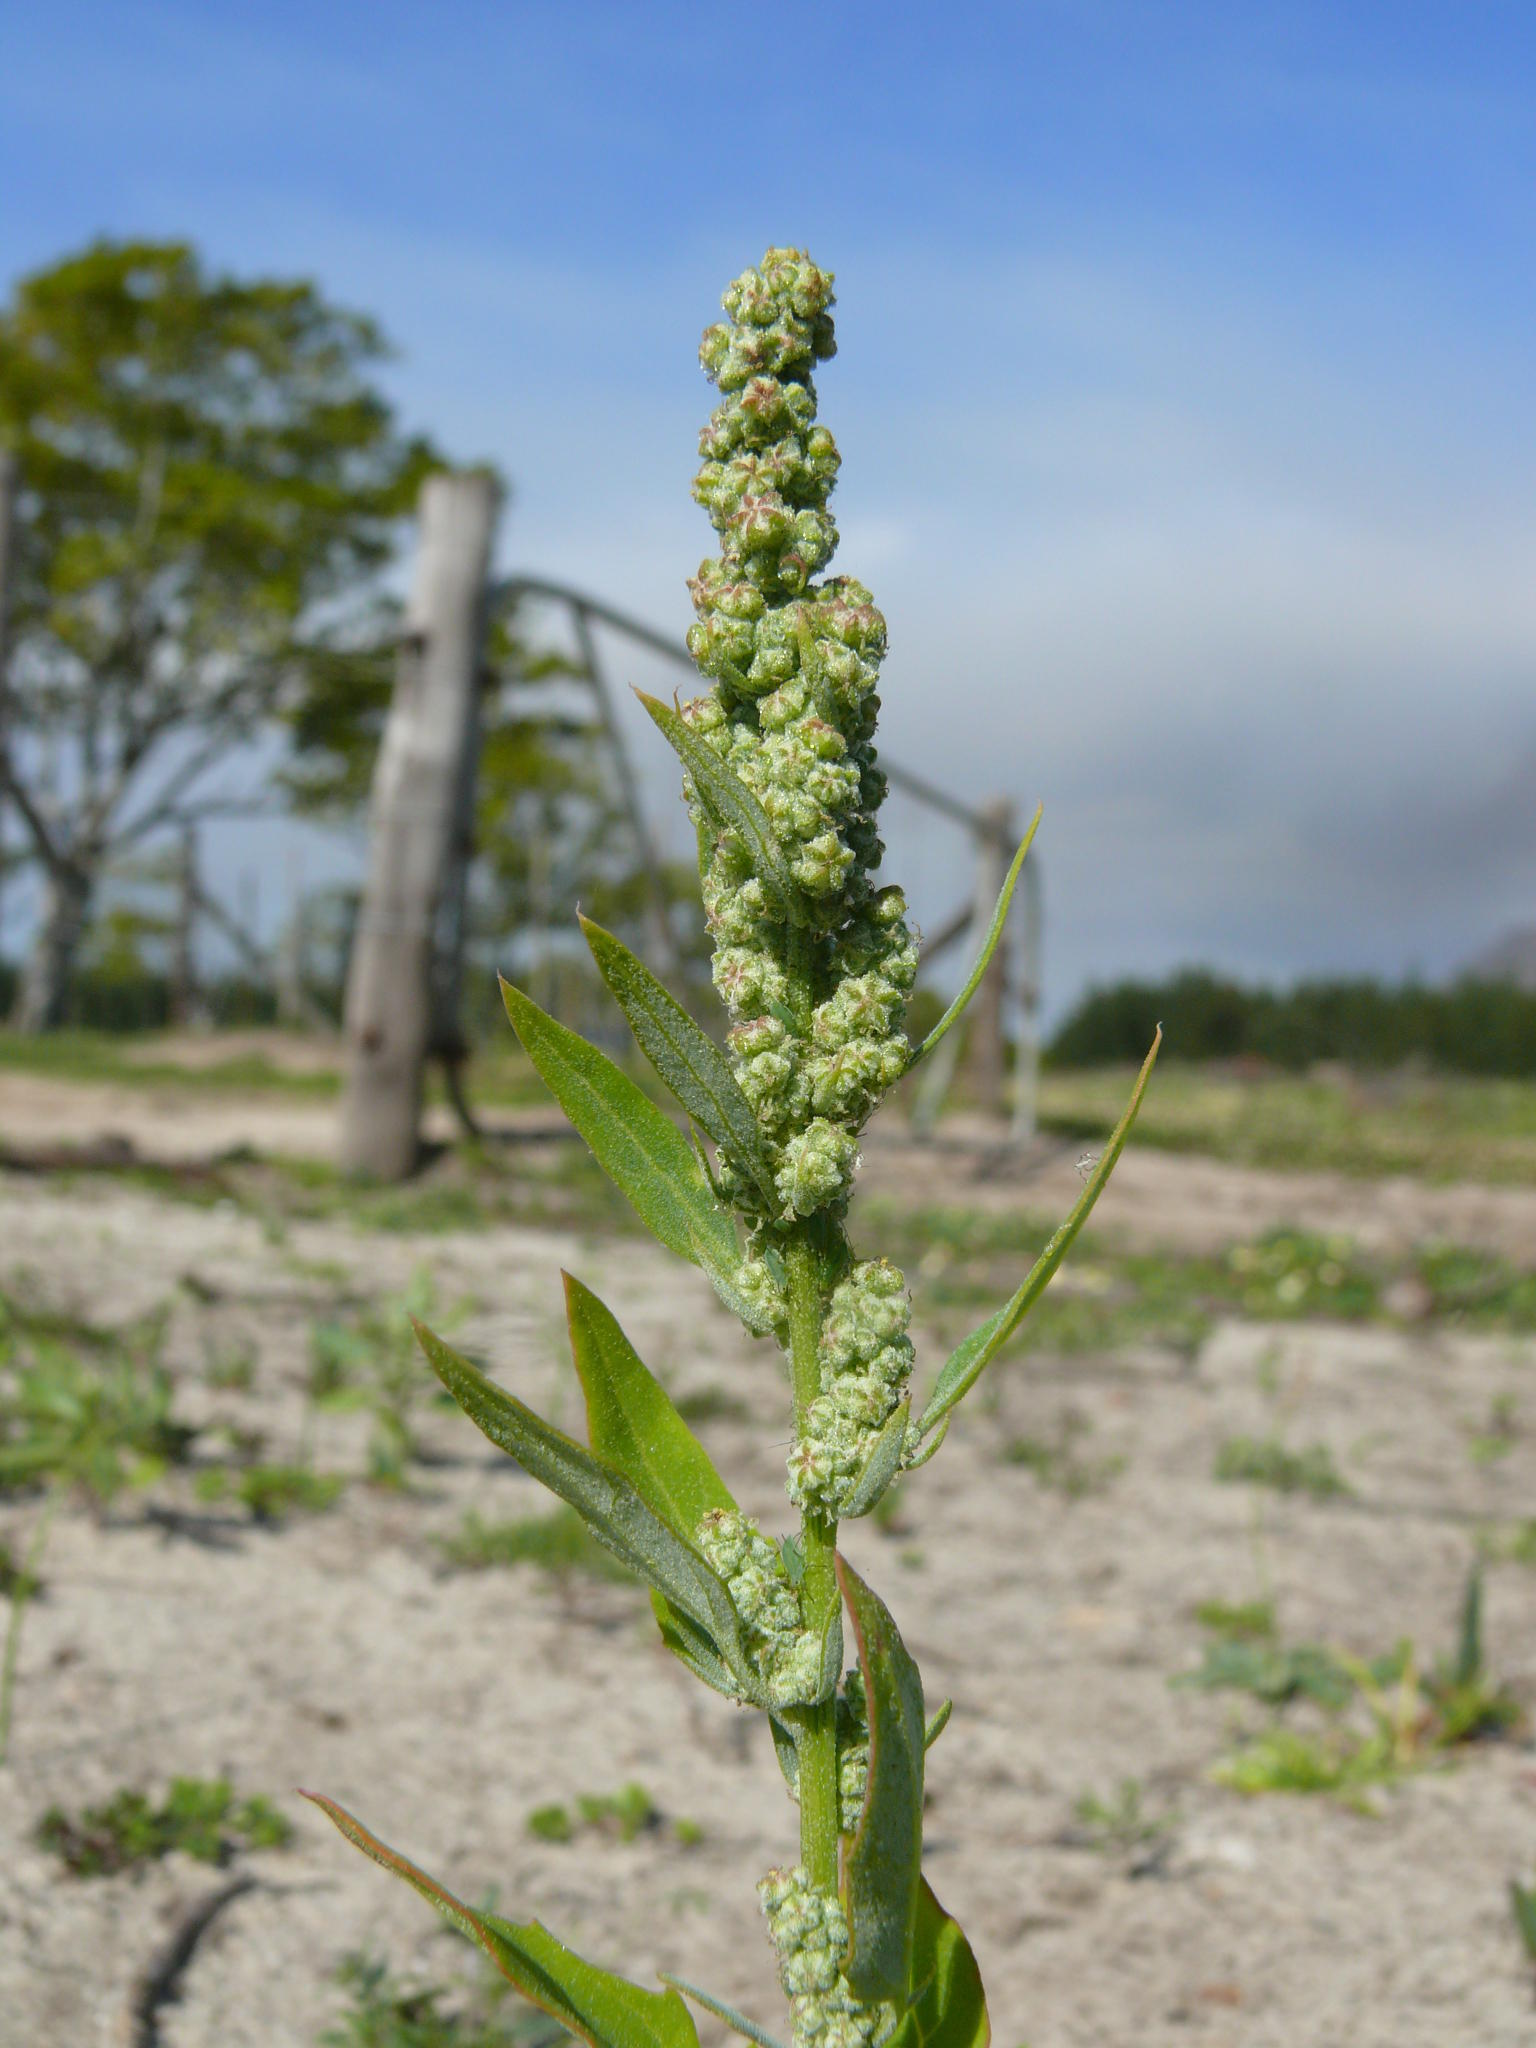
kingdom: Plantae
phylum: Tracheophyta
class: Magnoliopsida
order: Caryophyllales
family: Polygonaceae
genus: Rumex
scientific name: Rumex crispus
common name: Curled dock
